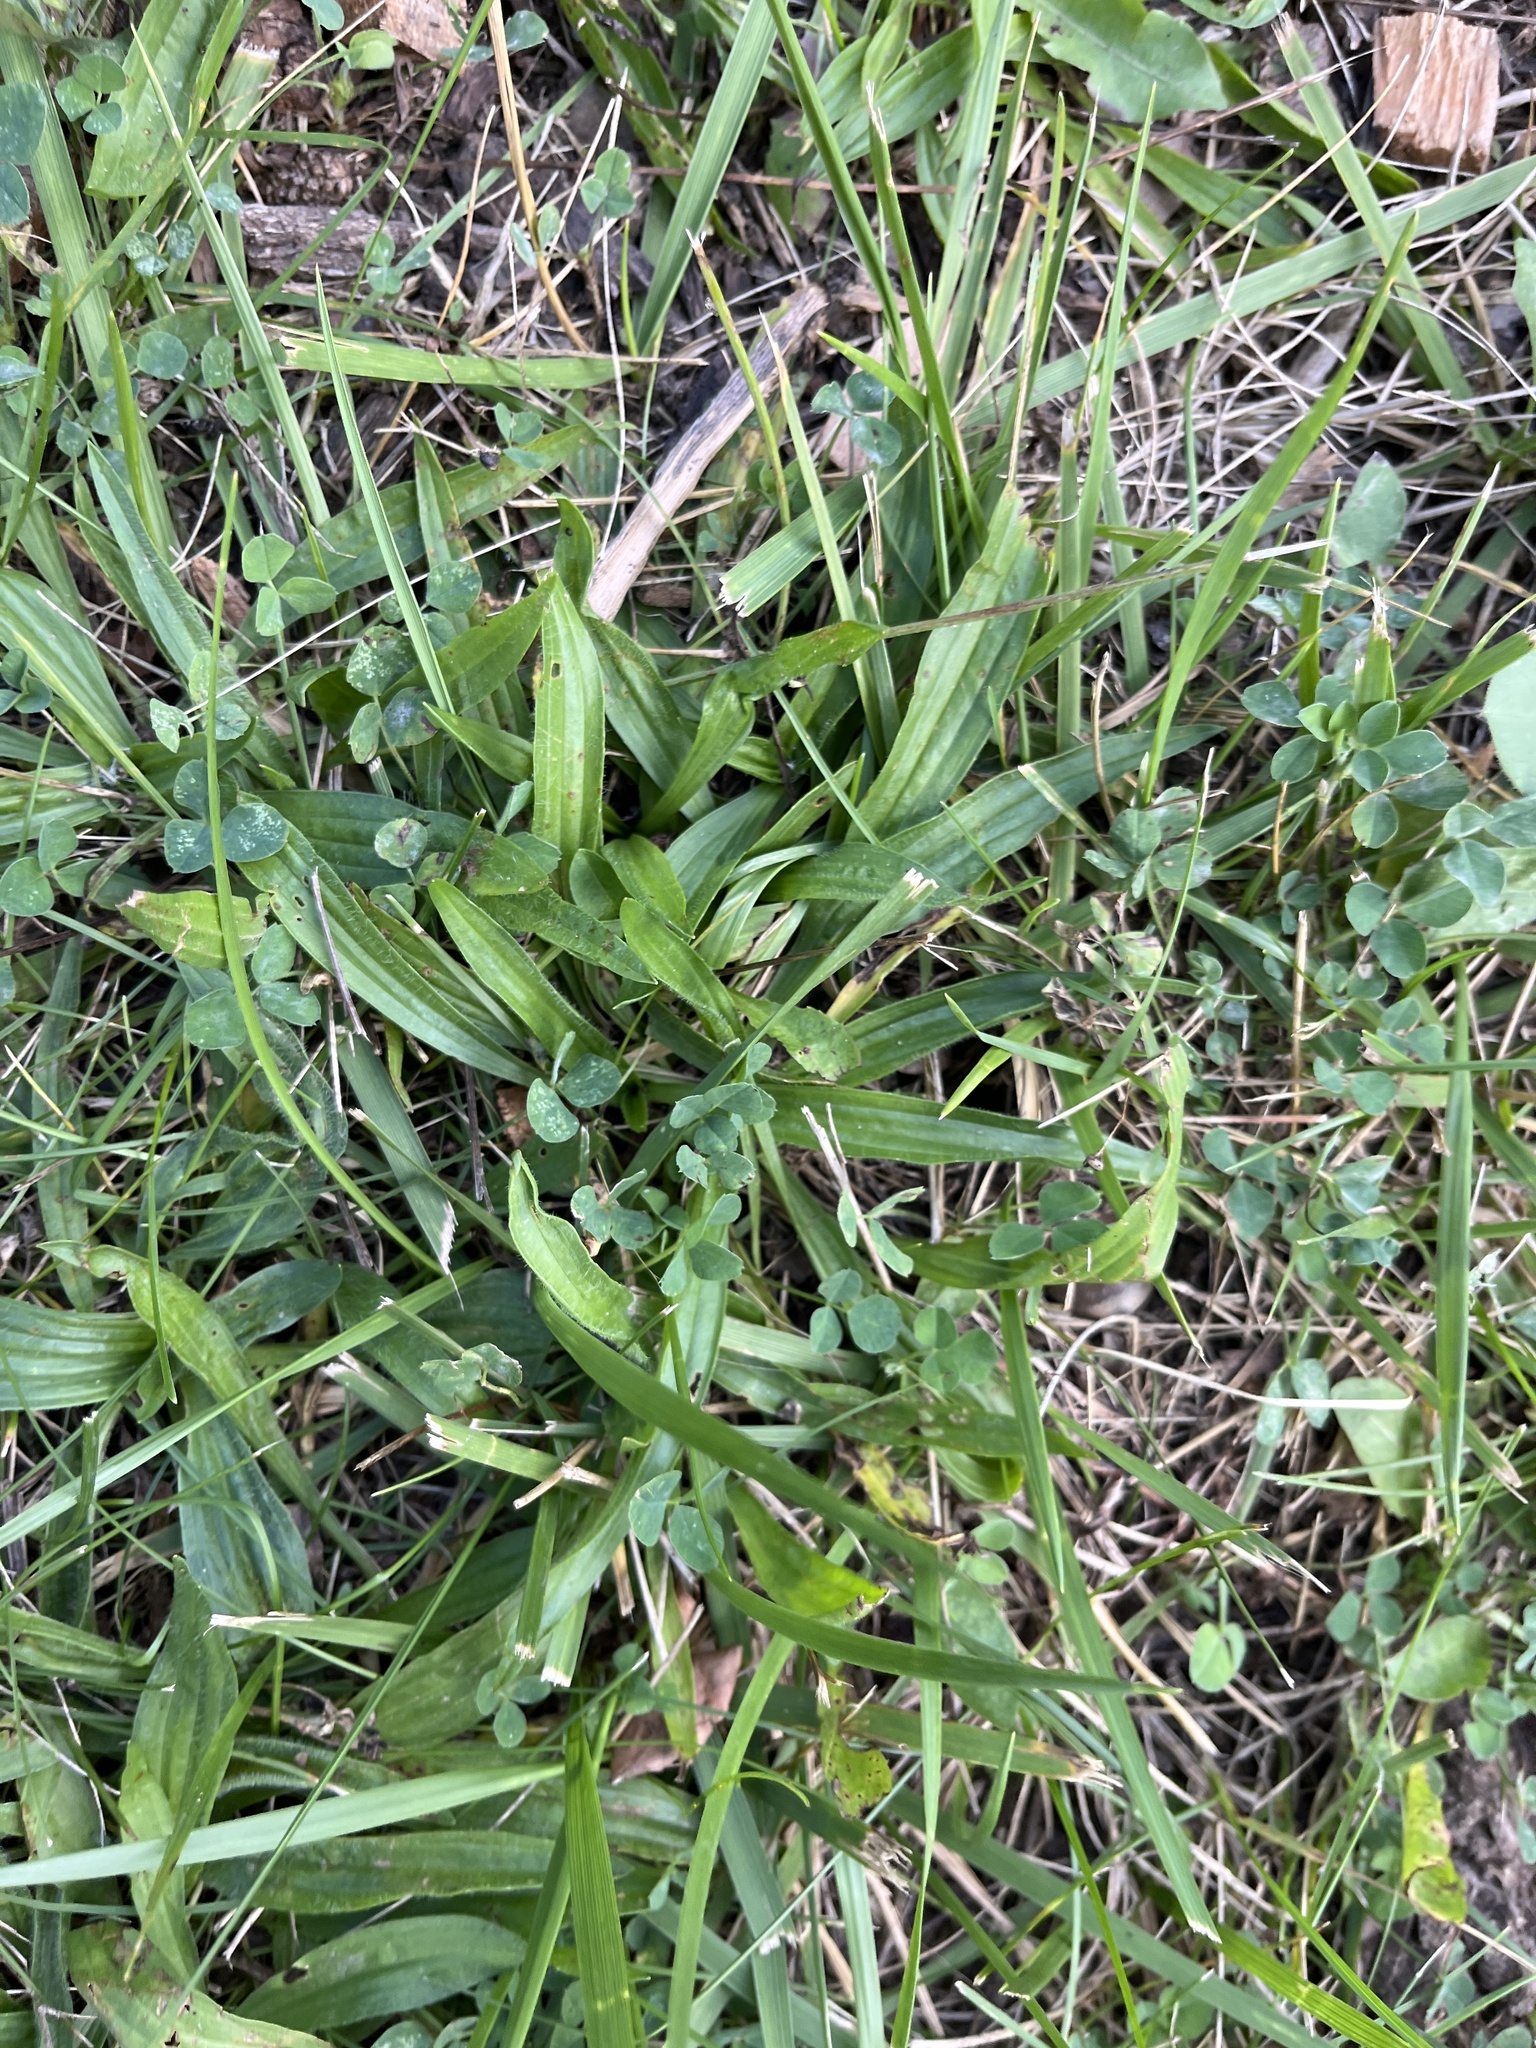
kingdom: Plantae
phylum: Tracheophyta
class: Magnoliopsida
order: Lamiales
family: Plantaginaceae
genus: Plantago
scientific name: Plantago lanceolata
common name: Ribwort plantain
